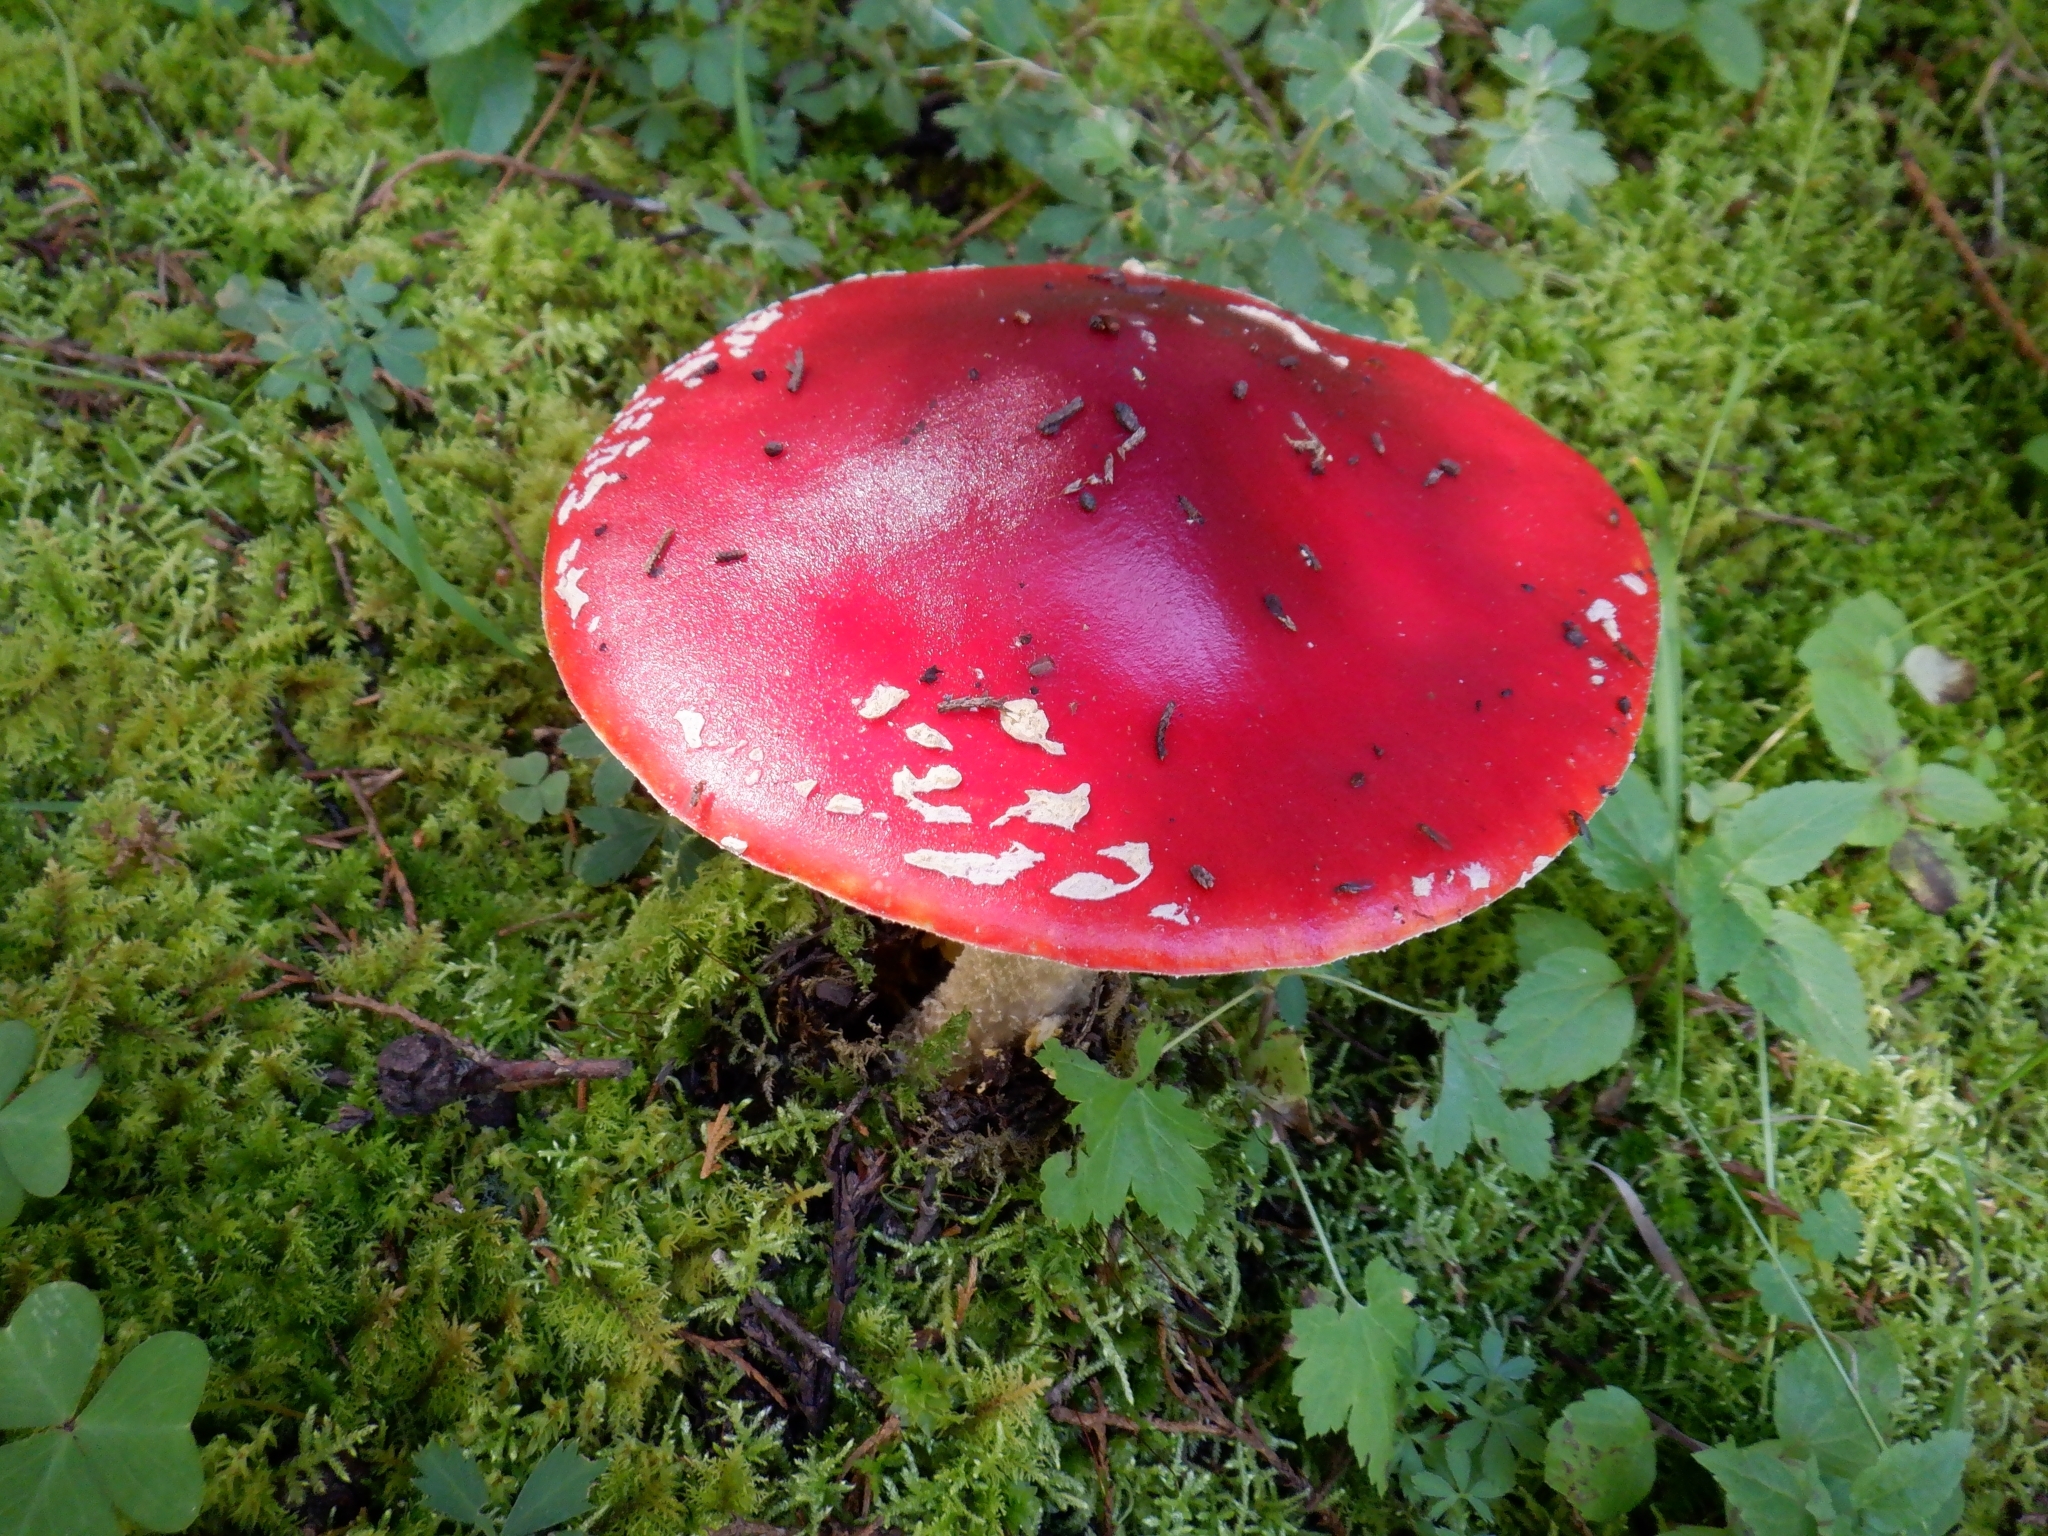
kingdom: Fungi
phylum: Basidiomycota
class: Agaricomycetes
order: Agaricales
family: Amanitaceae
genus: Amanita
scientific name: Amanita muscaria
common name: Fly agaric
